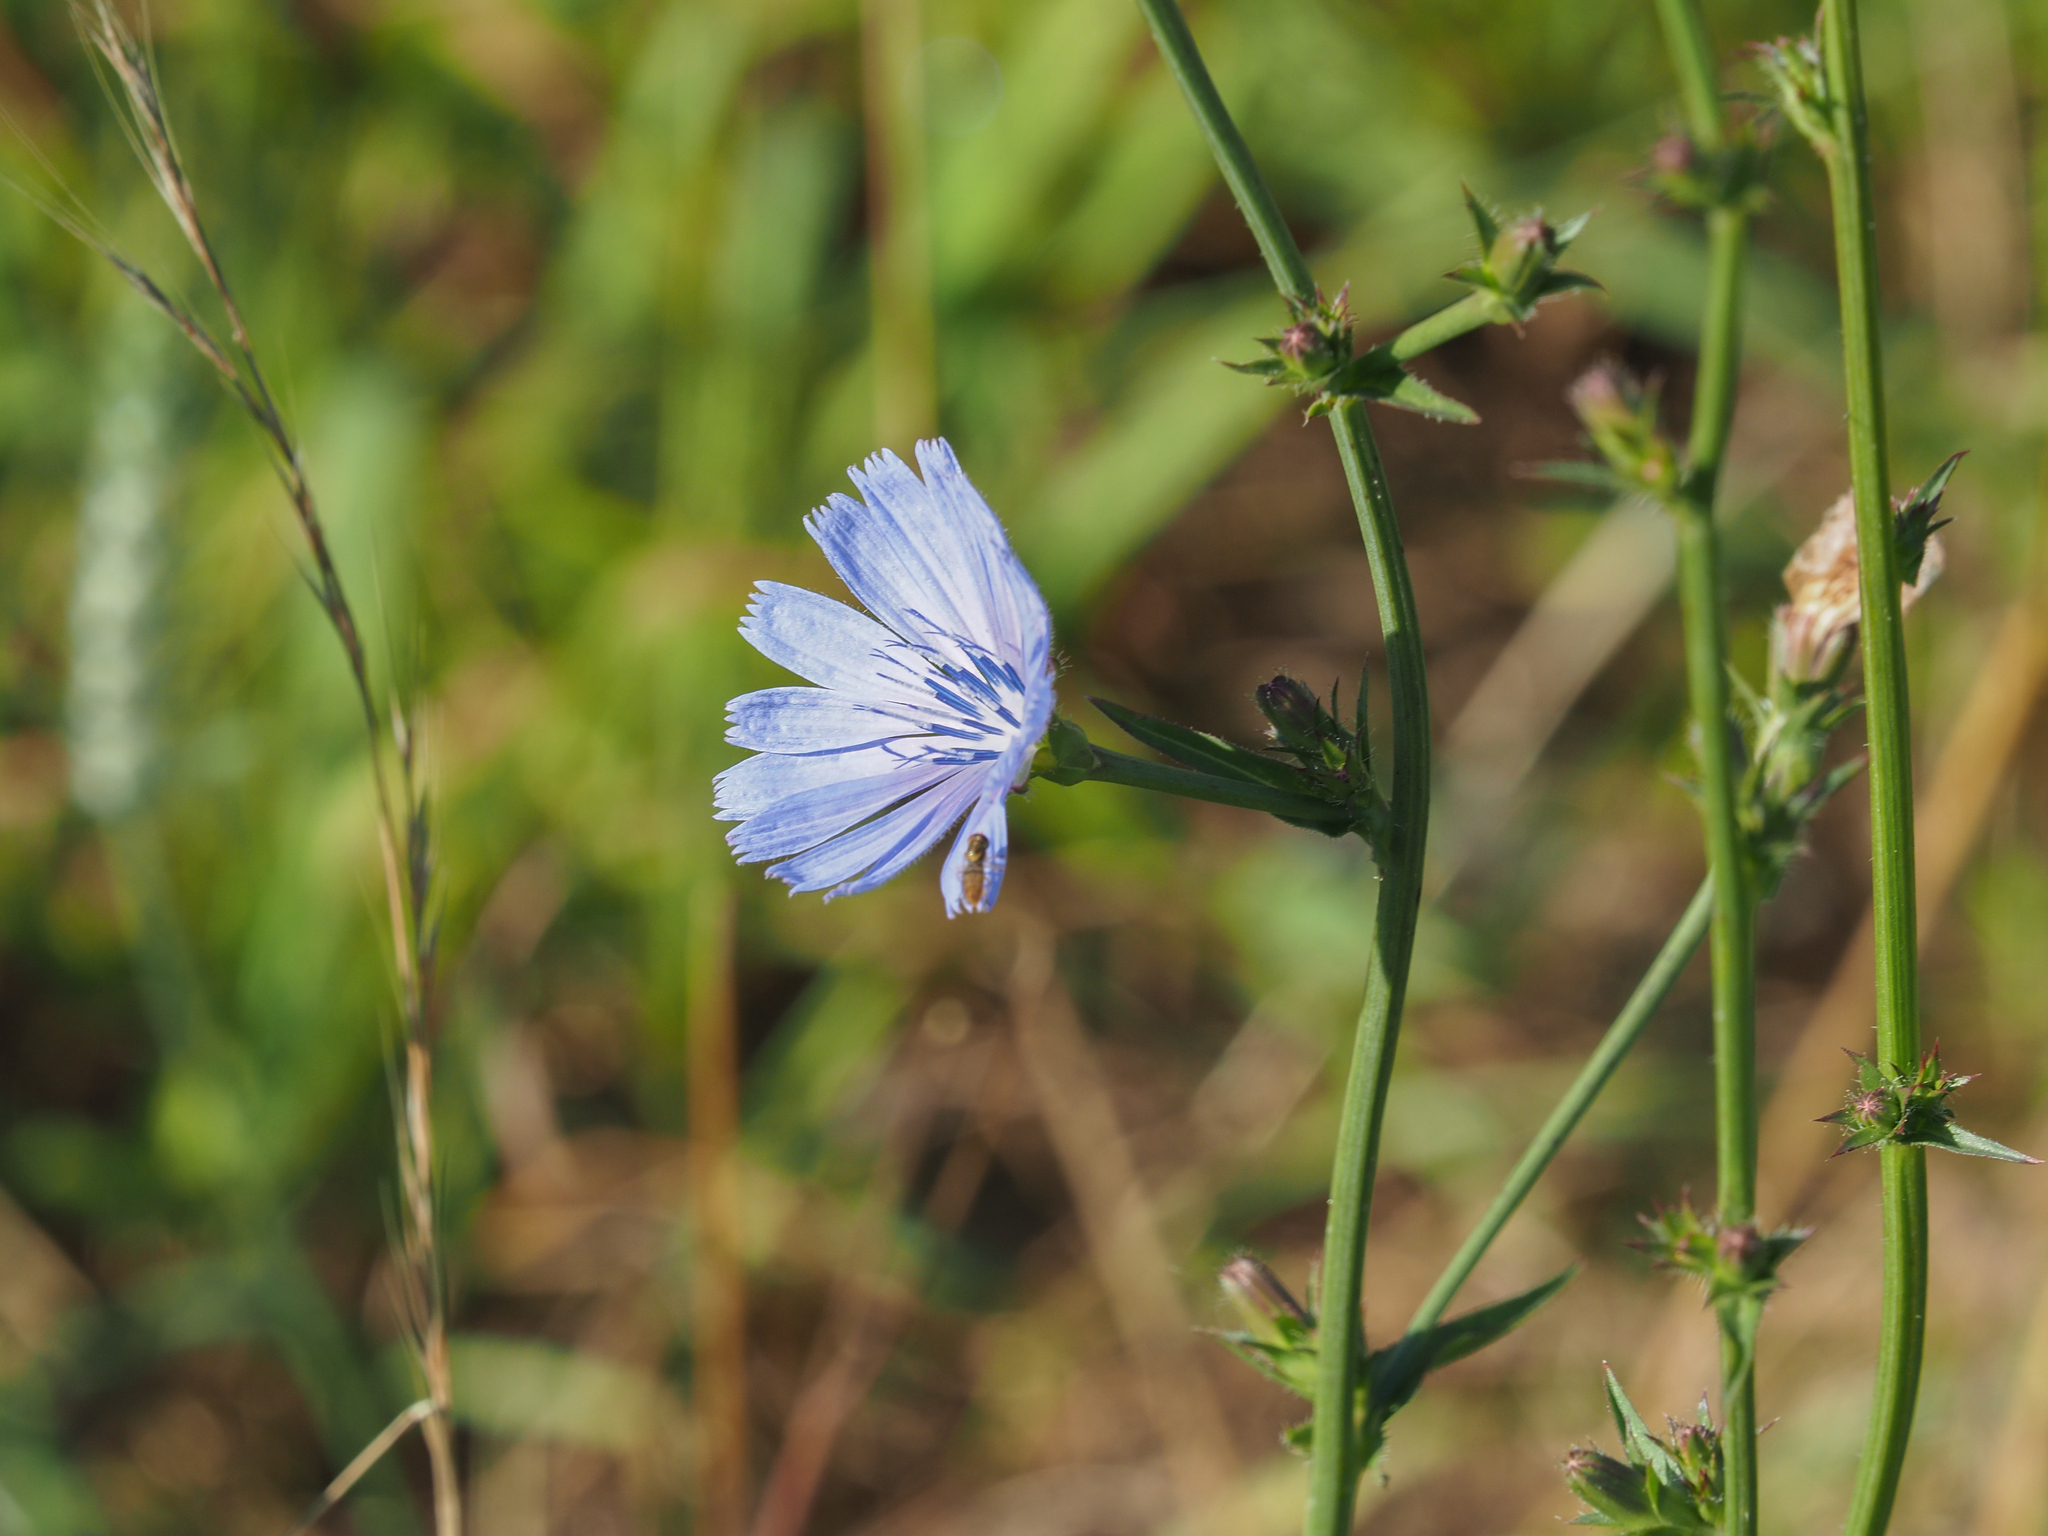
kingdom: Plantae
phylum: Tracheophyta
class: Magnoliopsida
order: Asterales
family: Asteraceae
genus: Cichorium
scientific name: Cichorium intybus
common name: Chicory
